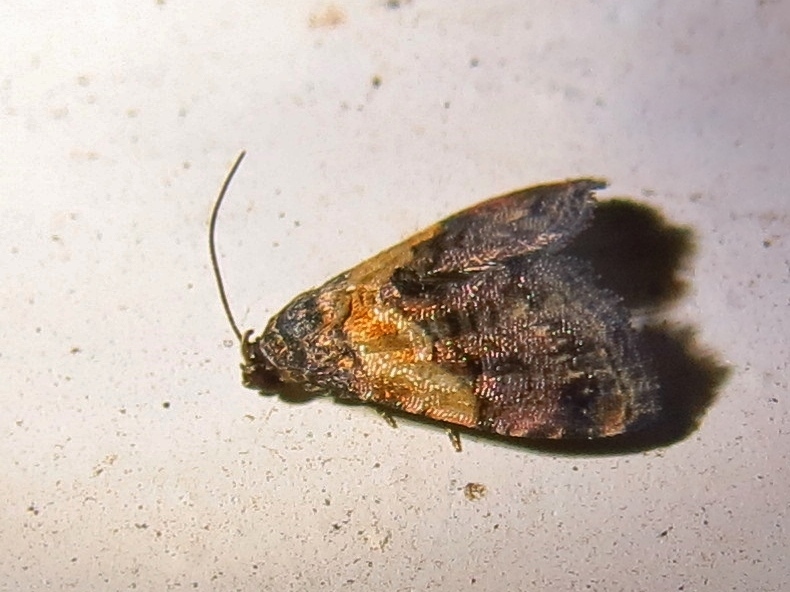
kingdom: Animalia
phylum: Arthropoda
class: Insecta
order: Lepidoptera
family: Noctuidae
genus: Tripudia
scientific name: Tripudia flavofasciata
